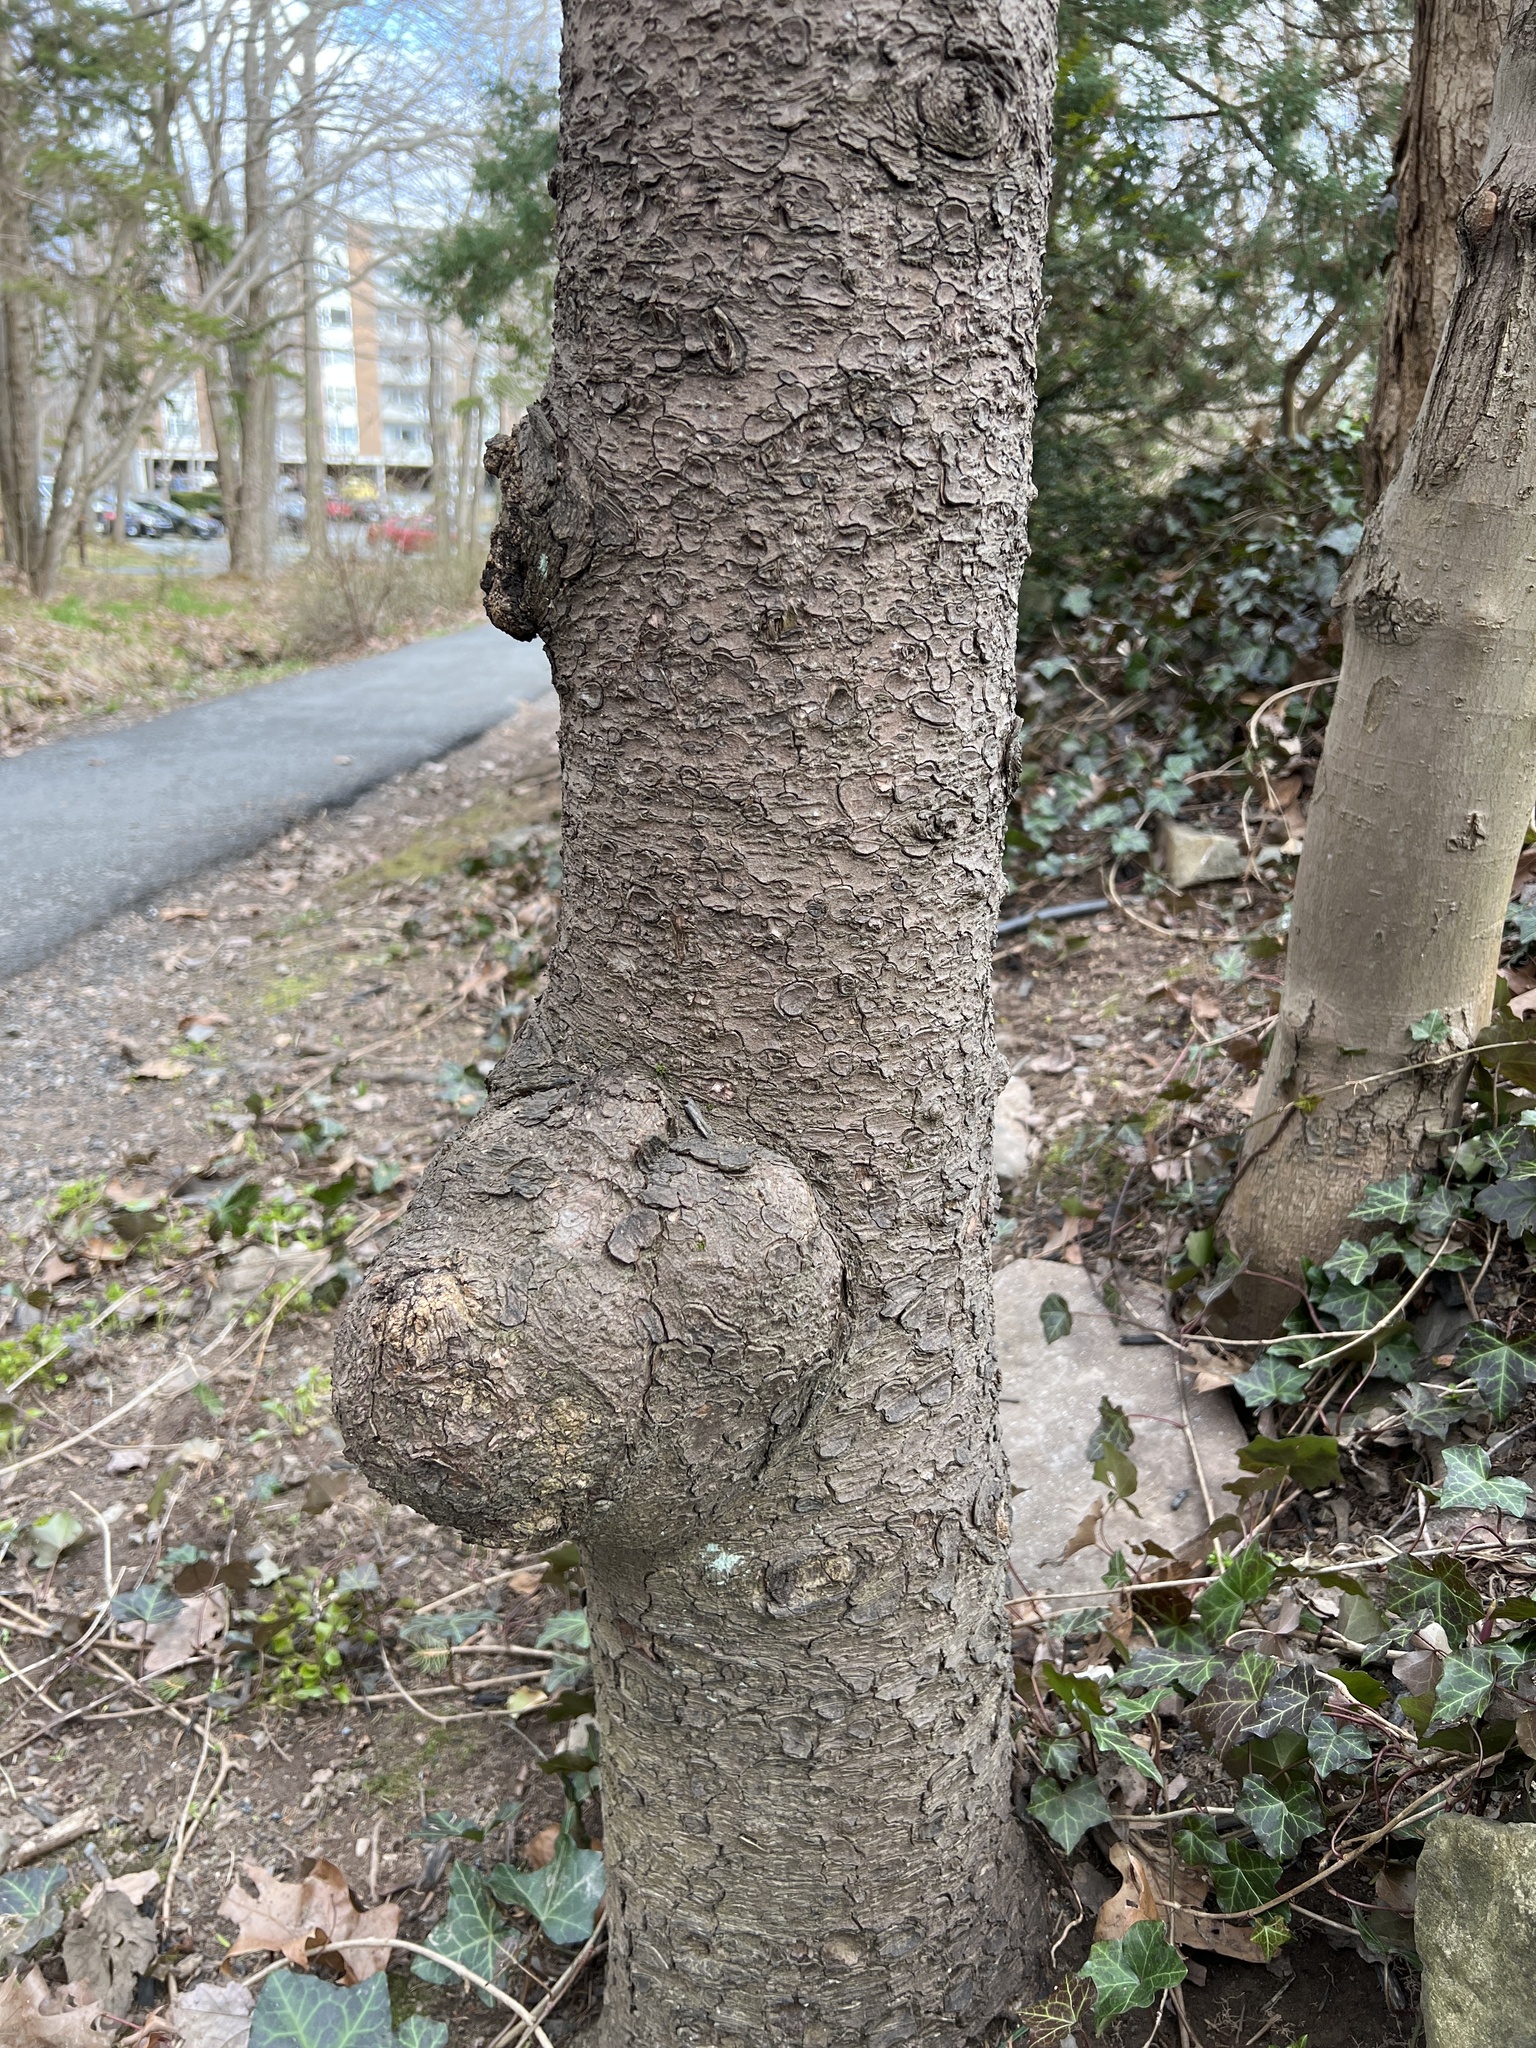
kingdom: Bacteria
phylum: Proteobacteria
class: Alphaproteobacteria
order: Rhizobiales
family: Rhizobiaceae
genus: Rhizobium
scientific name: Rhizobium Agrobacterium radiobacter
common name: Bacterial crown gall
